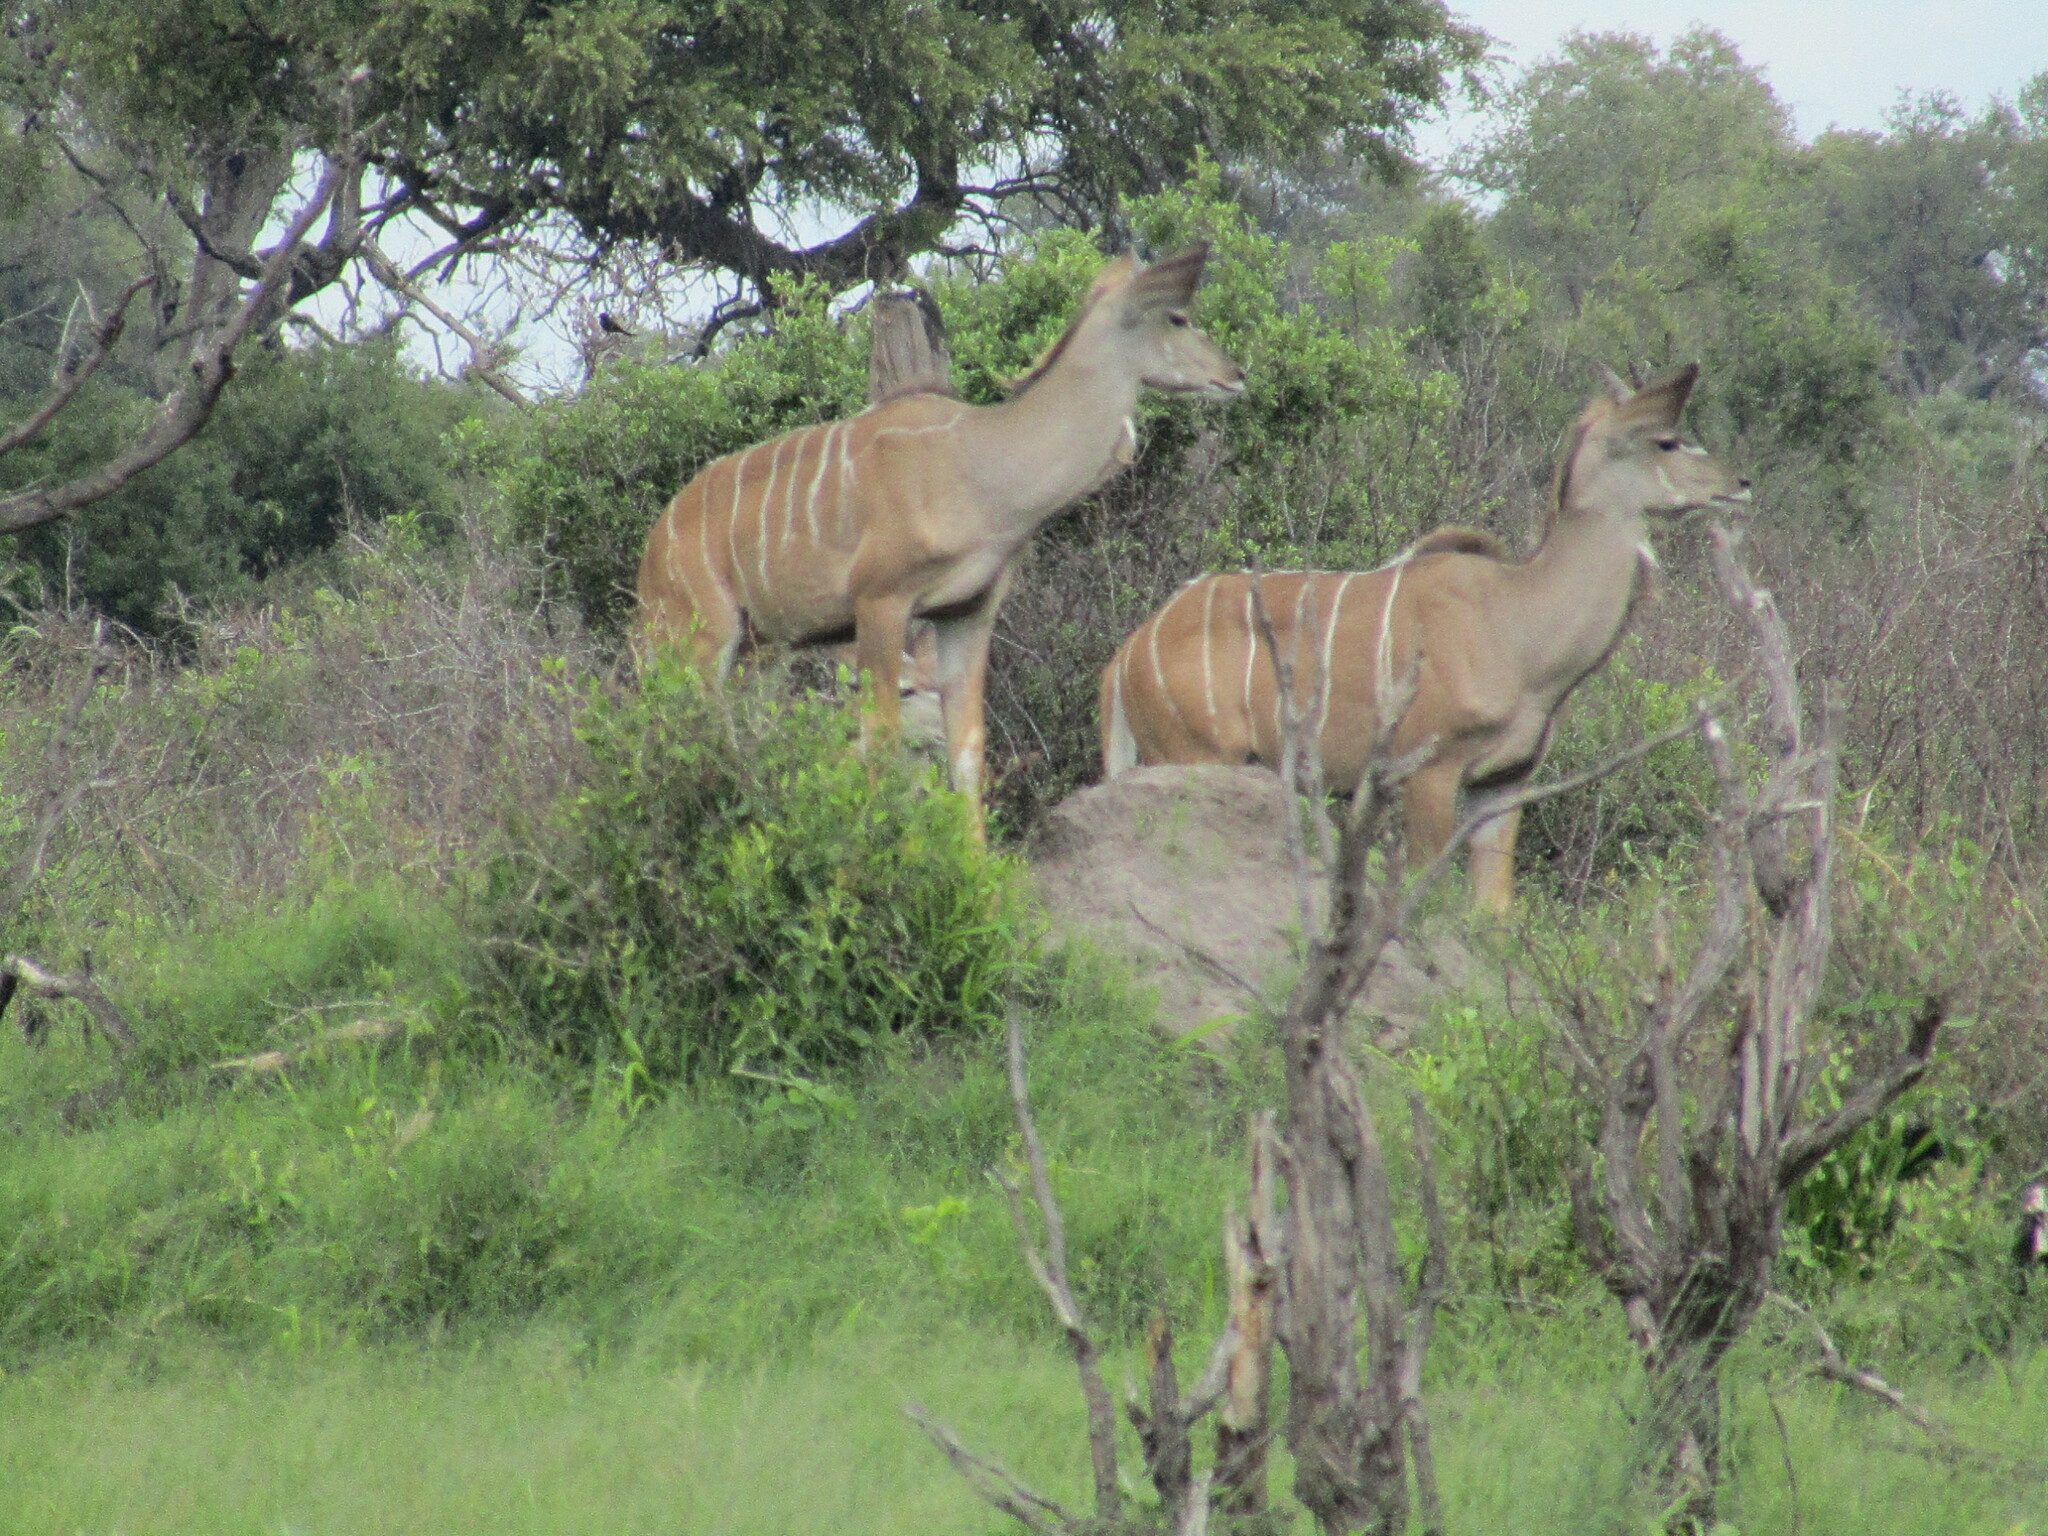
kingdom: Animalia
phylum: Chordata
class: Mammalia
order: Artiodactyla
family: Bovidae
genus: Tragelaphus
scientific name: Tragelaphus strepsiceros
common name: Greater kudu
